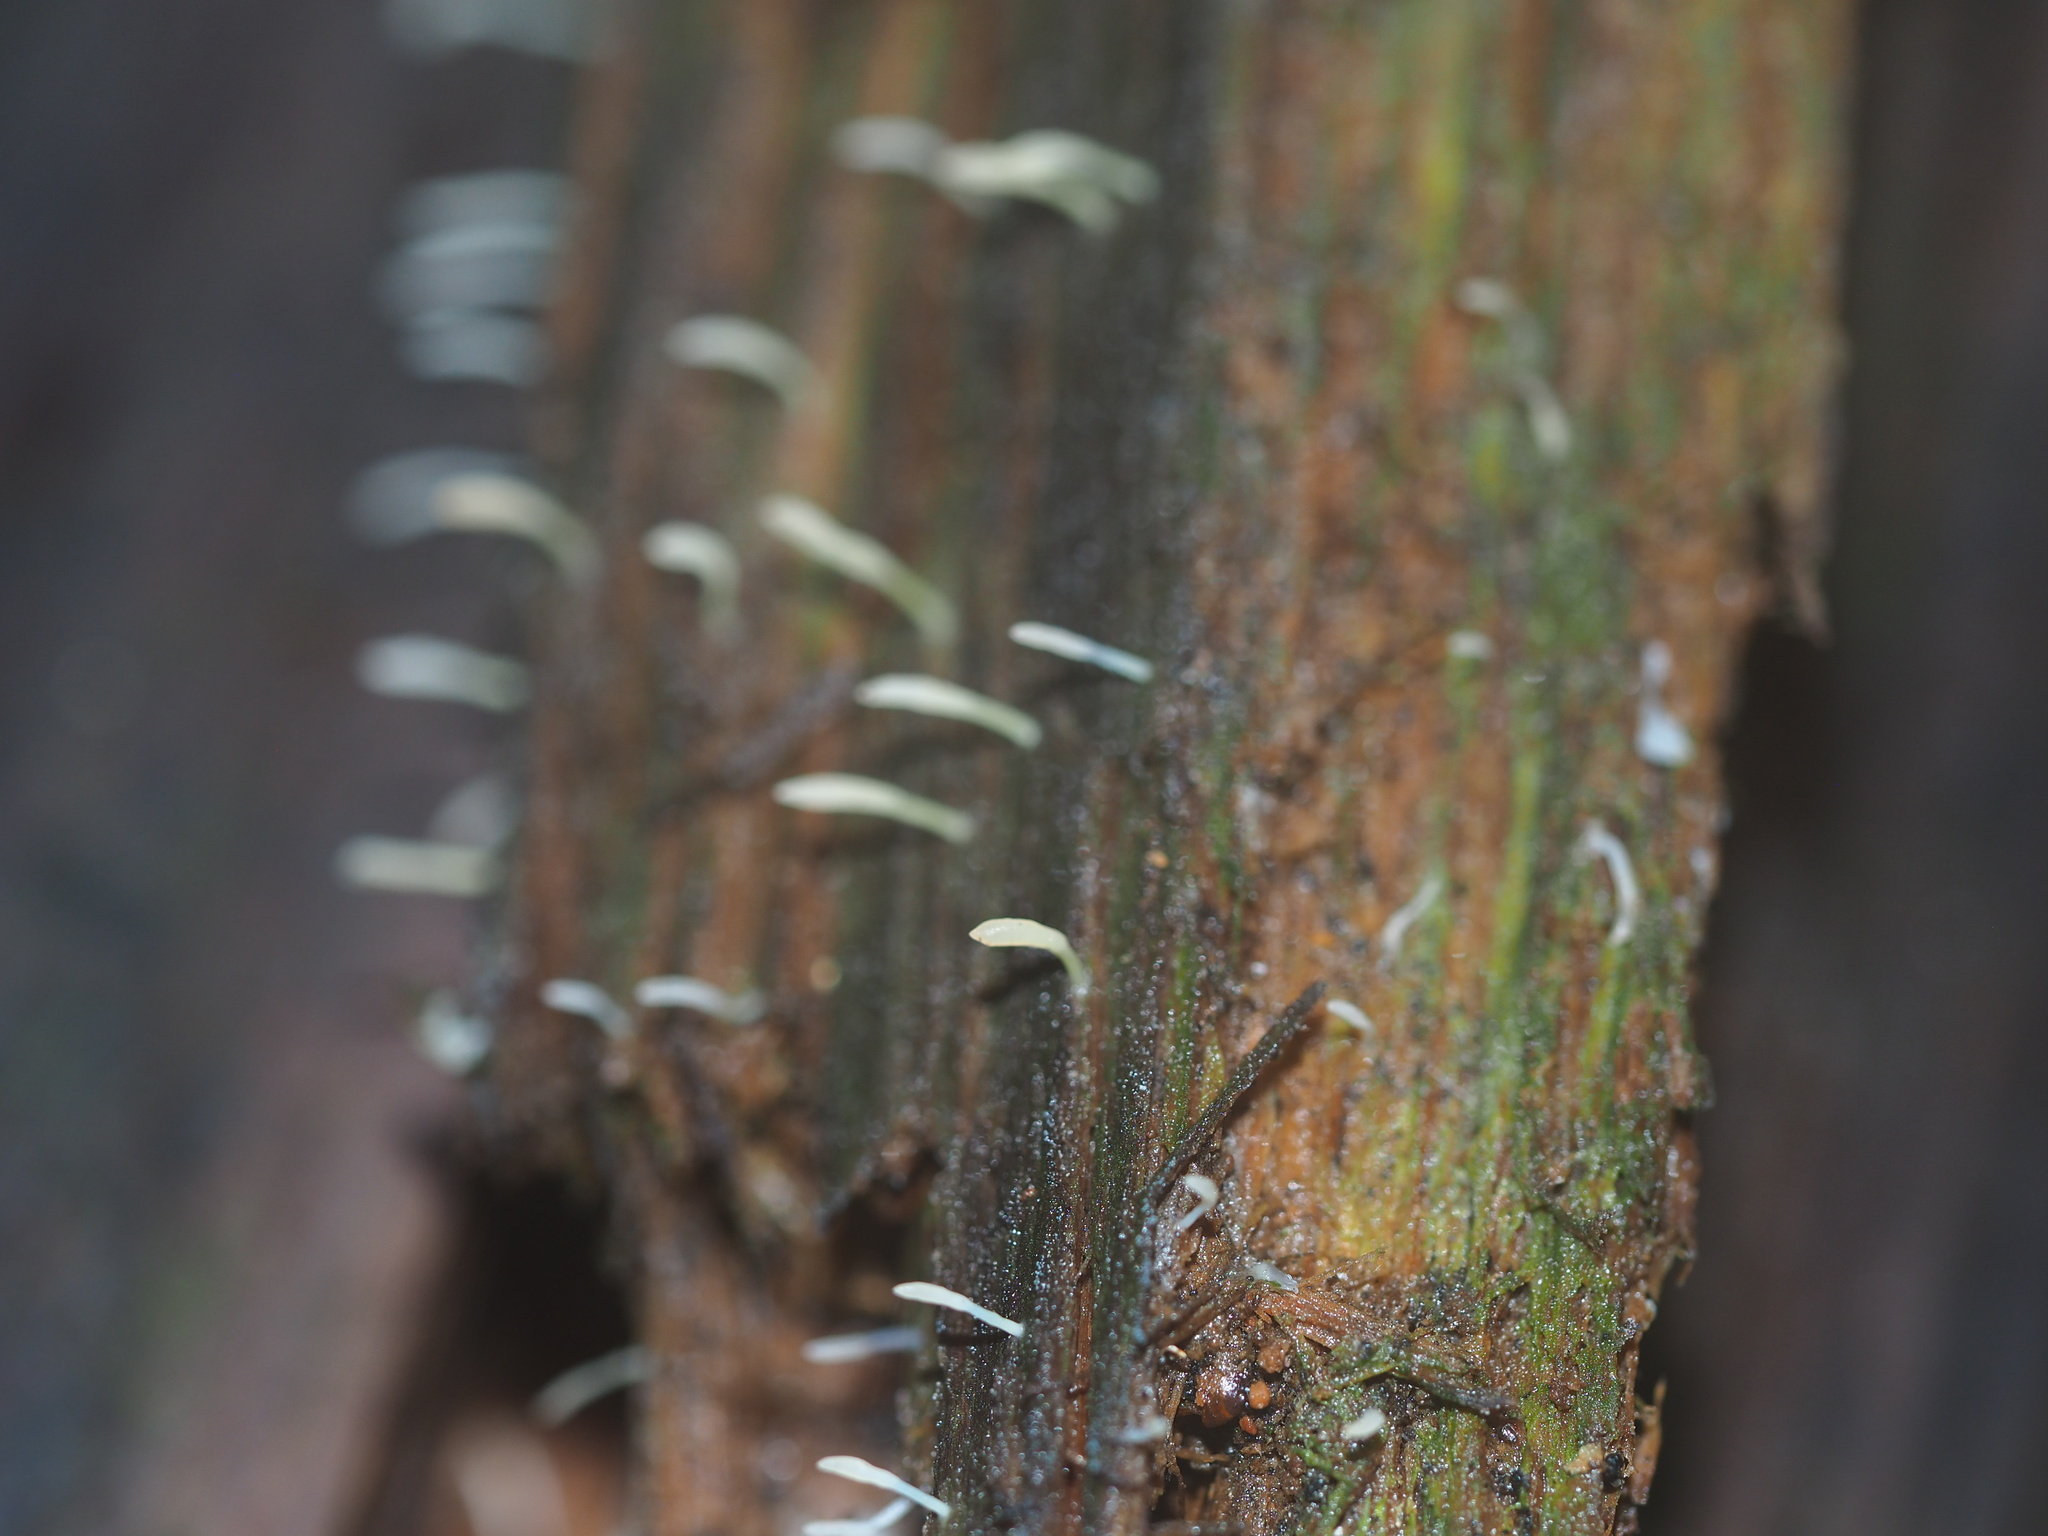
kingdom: Fungi
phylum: Basidiomycota
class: Agaricomycetes
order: Cantharellales
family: Hydnaceae
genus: Multiclavula
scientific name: Multiclavula mucida
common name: White green-algae coral
